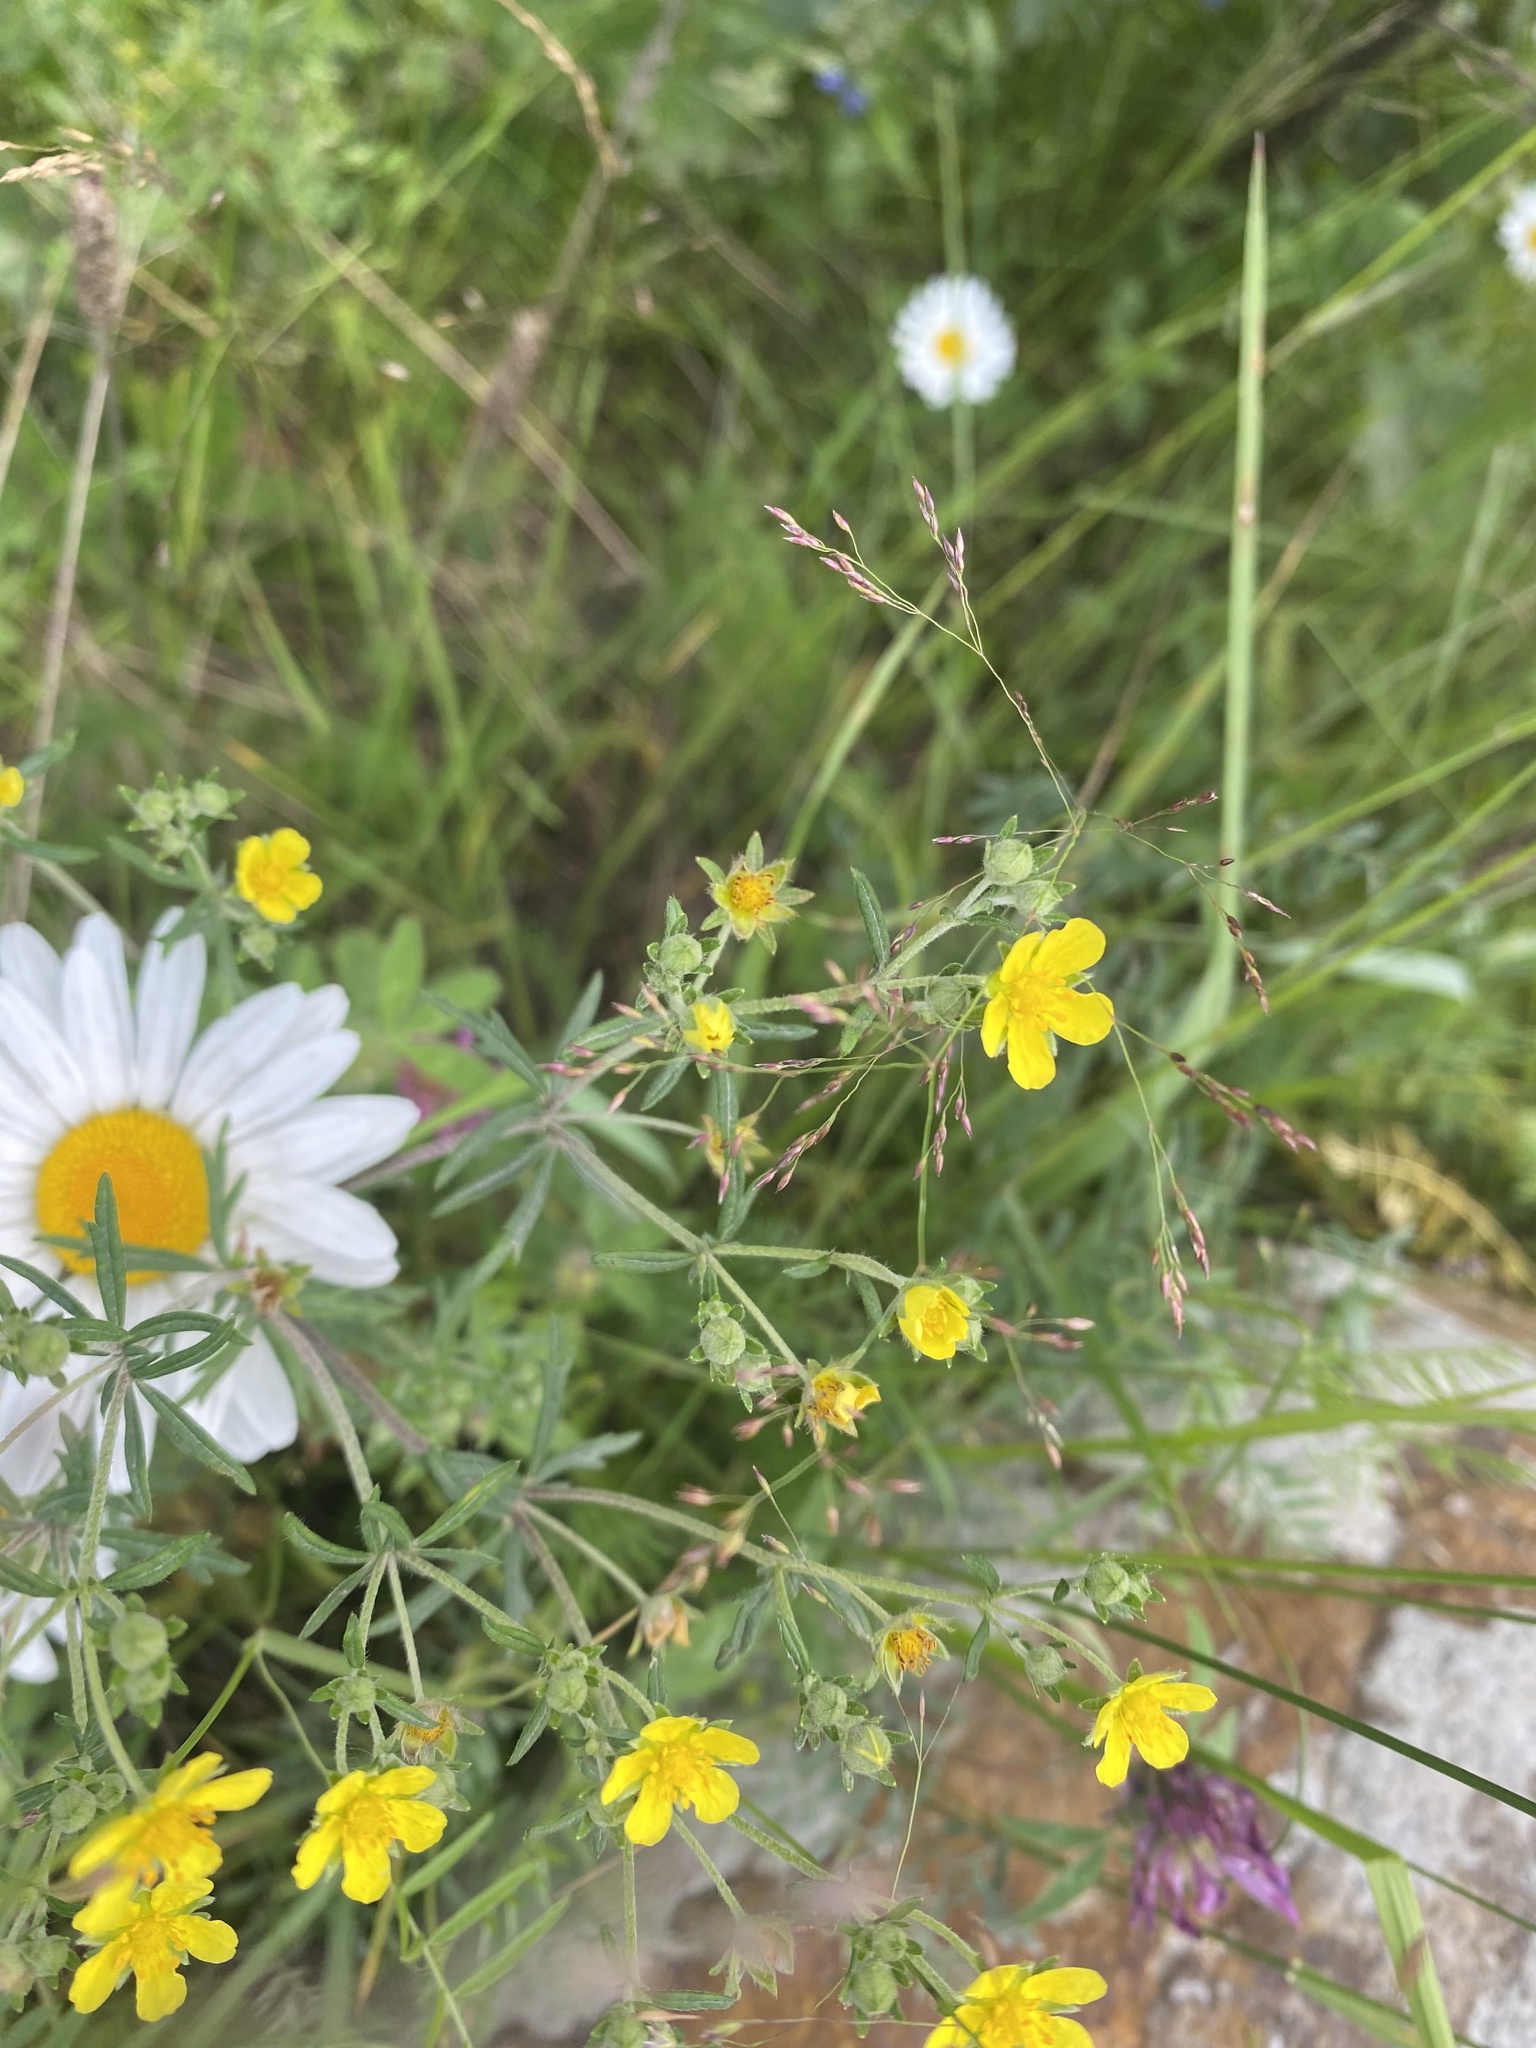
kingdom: Plantae
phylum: Tracheophyta
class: Magnoliopsida
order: Rosales
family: Rosaceae
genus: Potentilla
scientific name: Potentilla argentea
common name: Hoary cinquefoil
